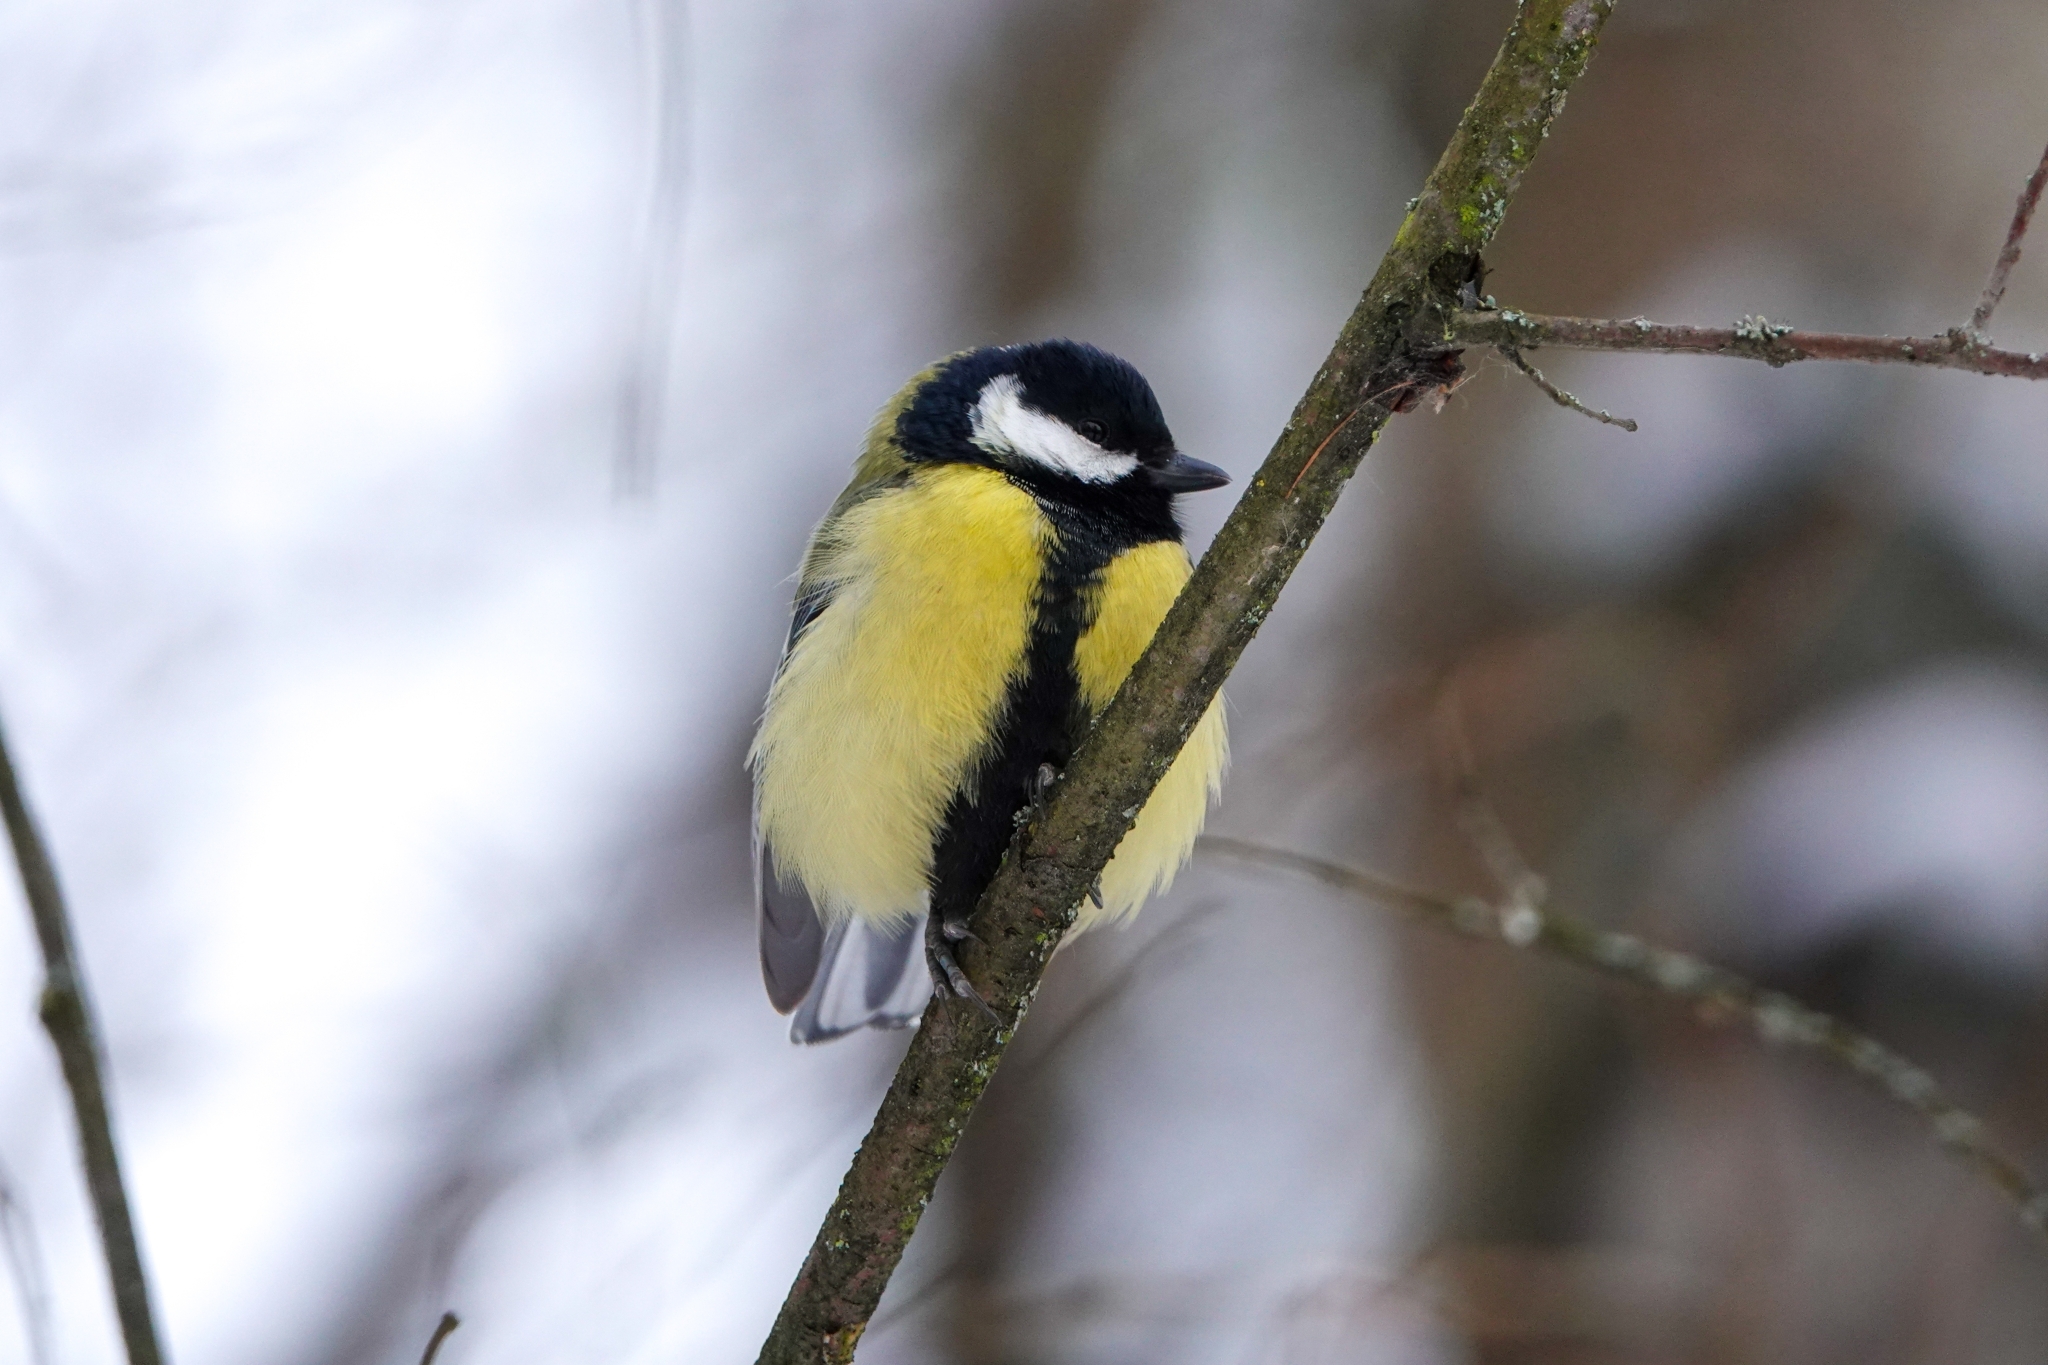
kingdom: Animalia
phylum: Chordata
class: Aves
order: Passeriformes
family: Paridae
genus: Parus
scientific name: Parus major
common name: Great tit
